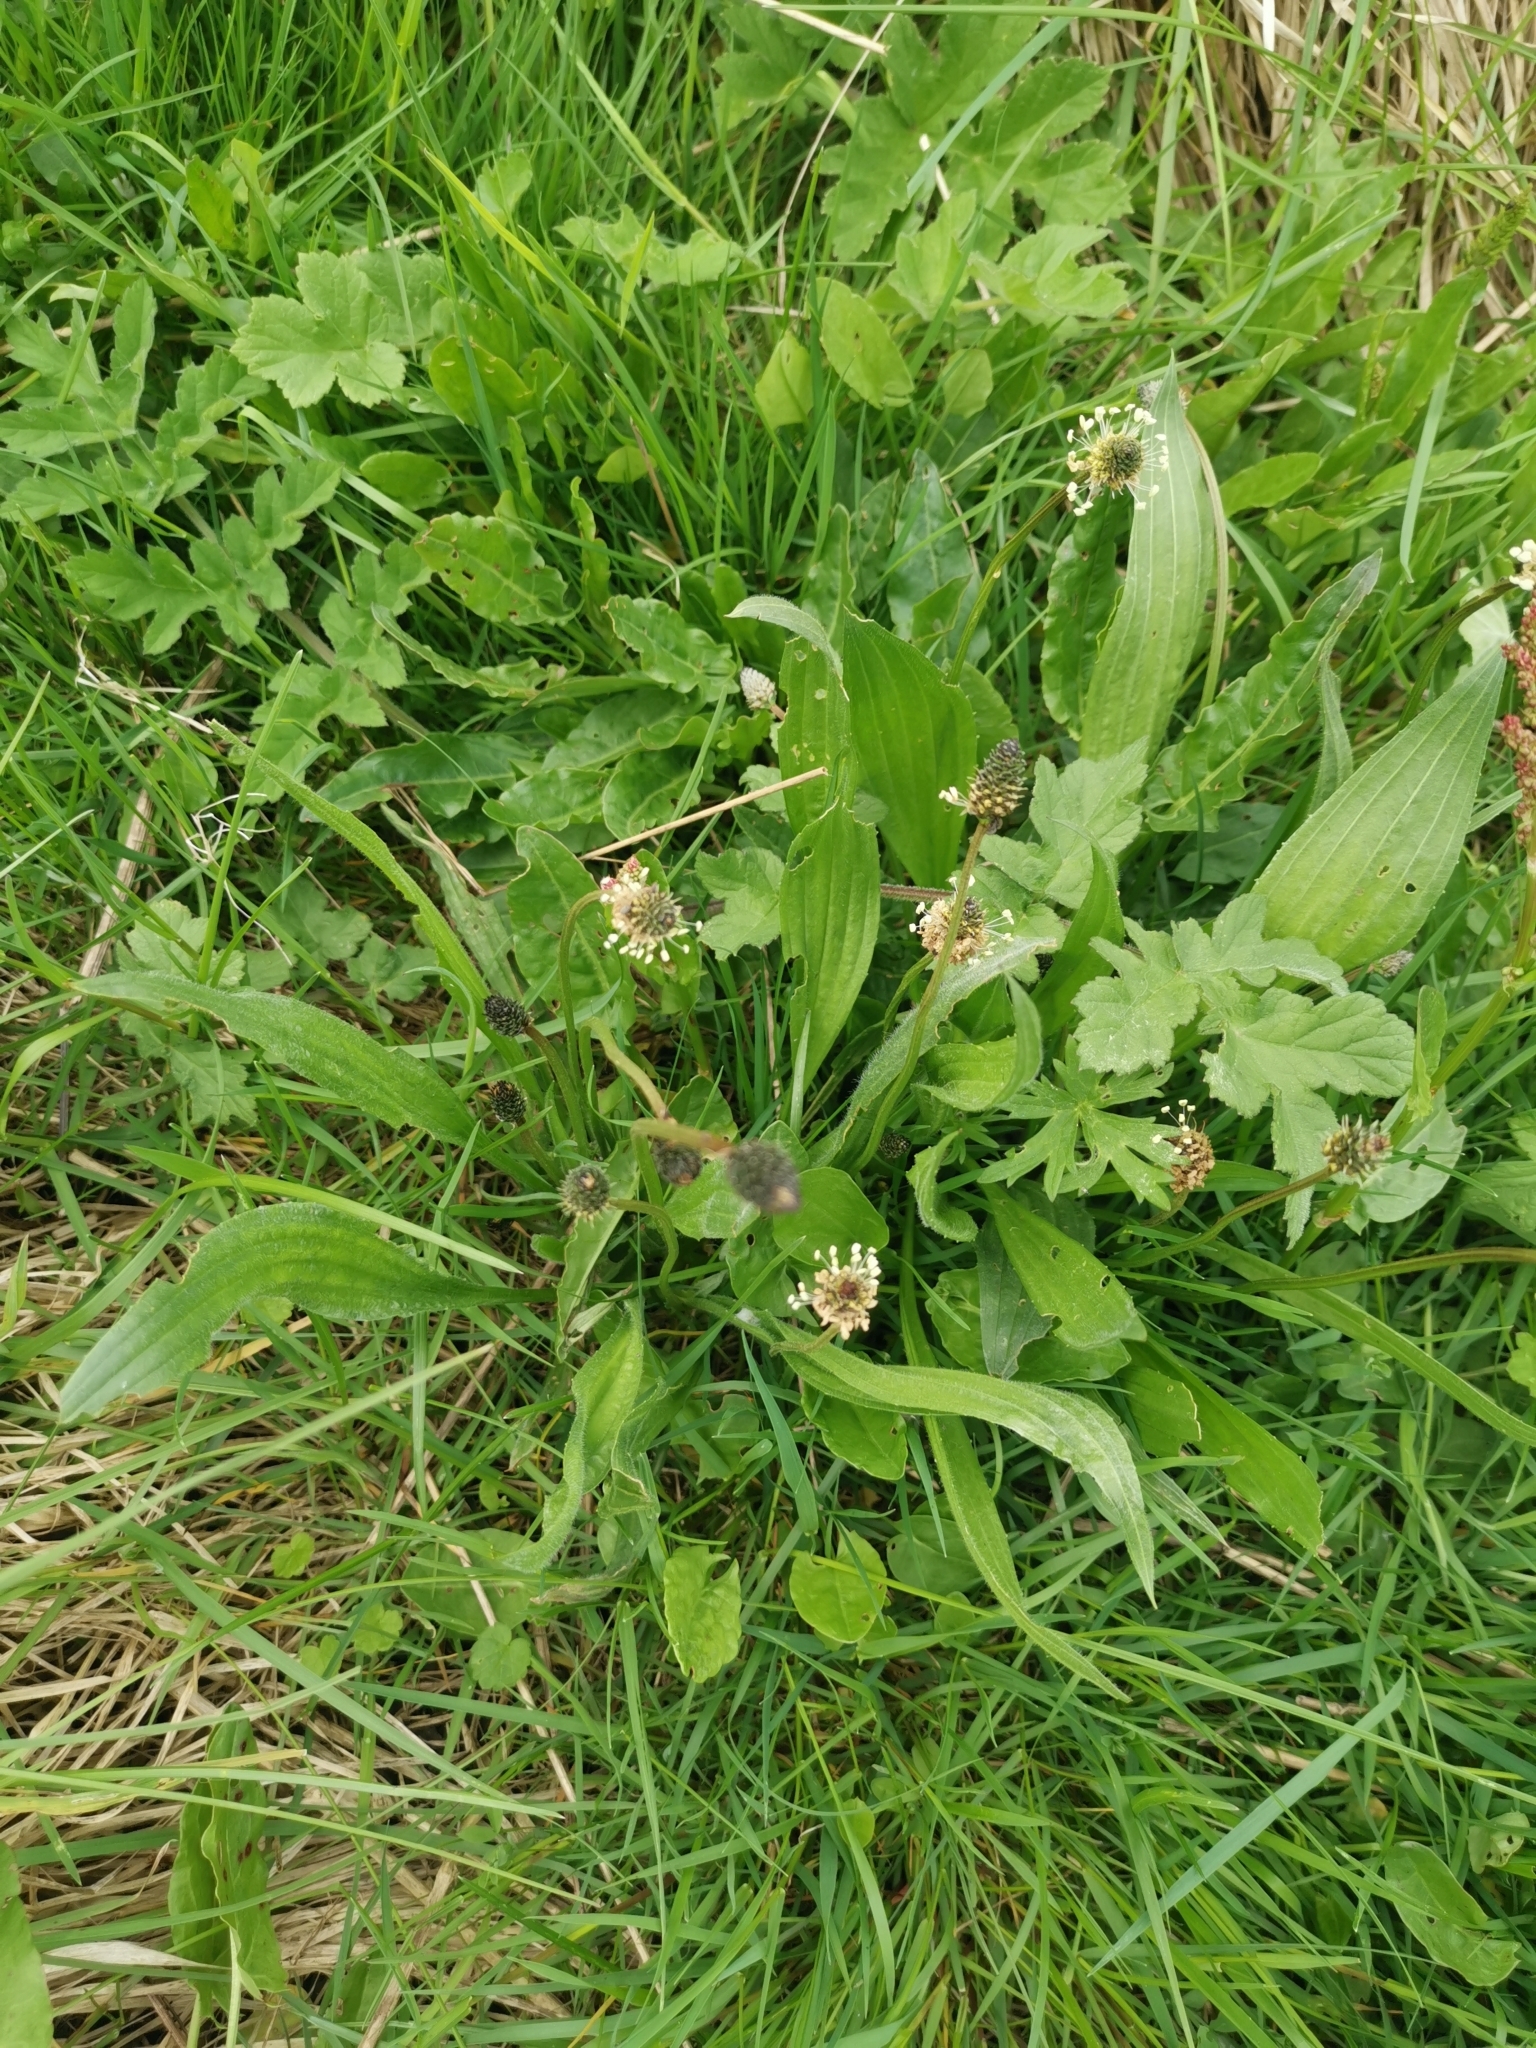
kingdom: Plantae
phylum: Tracheophyta
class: Magnoliopsida
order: Lamiales
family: Plantaginaceae
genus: Plantago
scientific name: Plantago lanceolata
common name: Ribwort plantain
